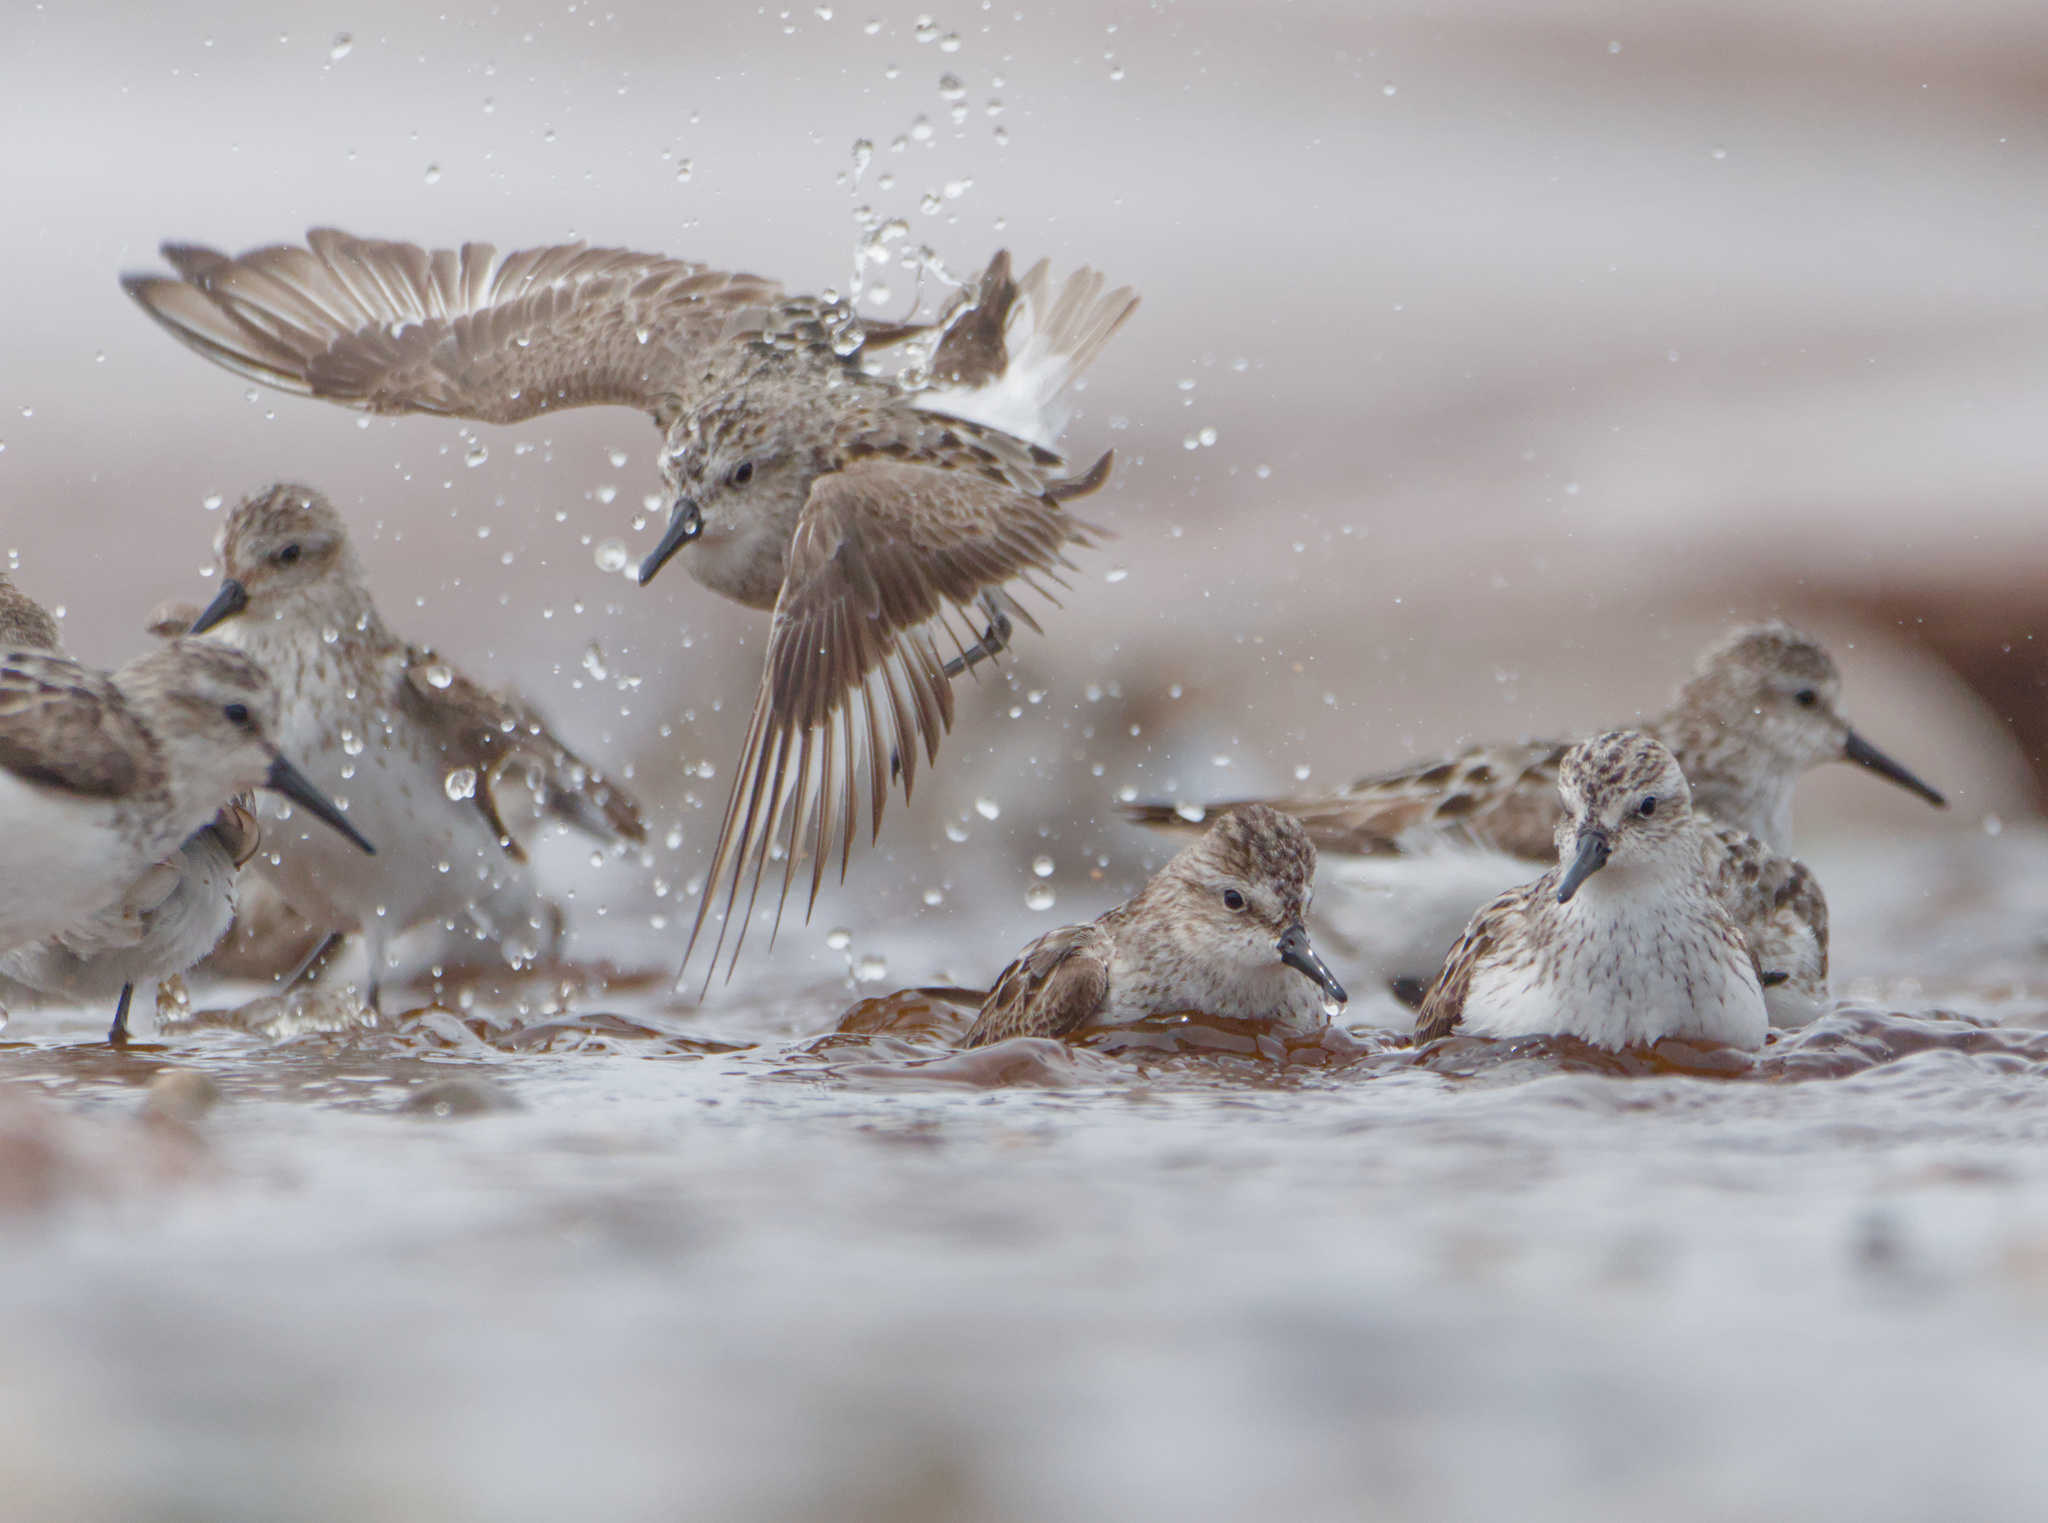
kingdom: Animalia
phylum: Chordata
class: Aves
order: Charadriiformes
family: Scolopacidae
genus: Calidris
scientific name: Calidris pusilla
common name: Semipalmated sandpiper
